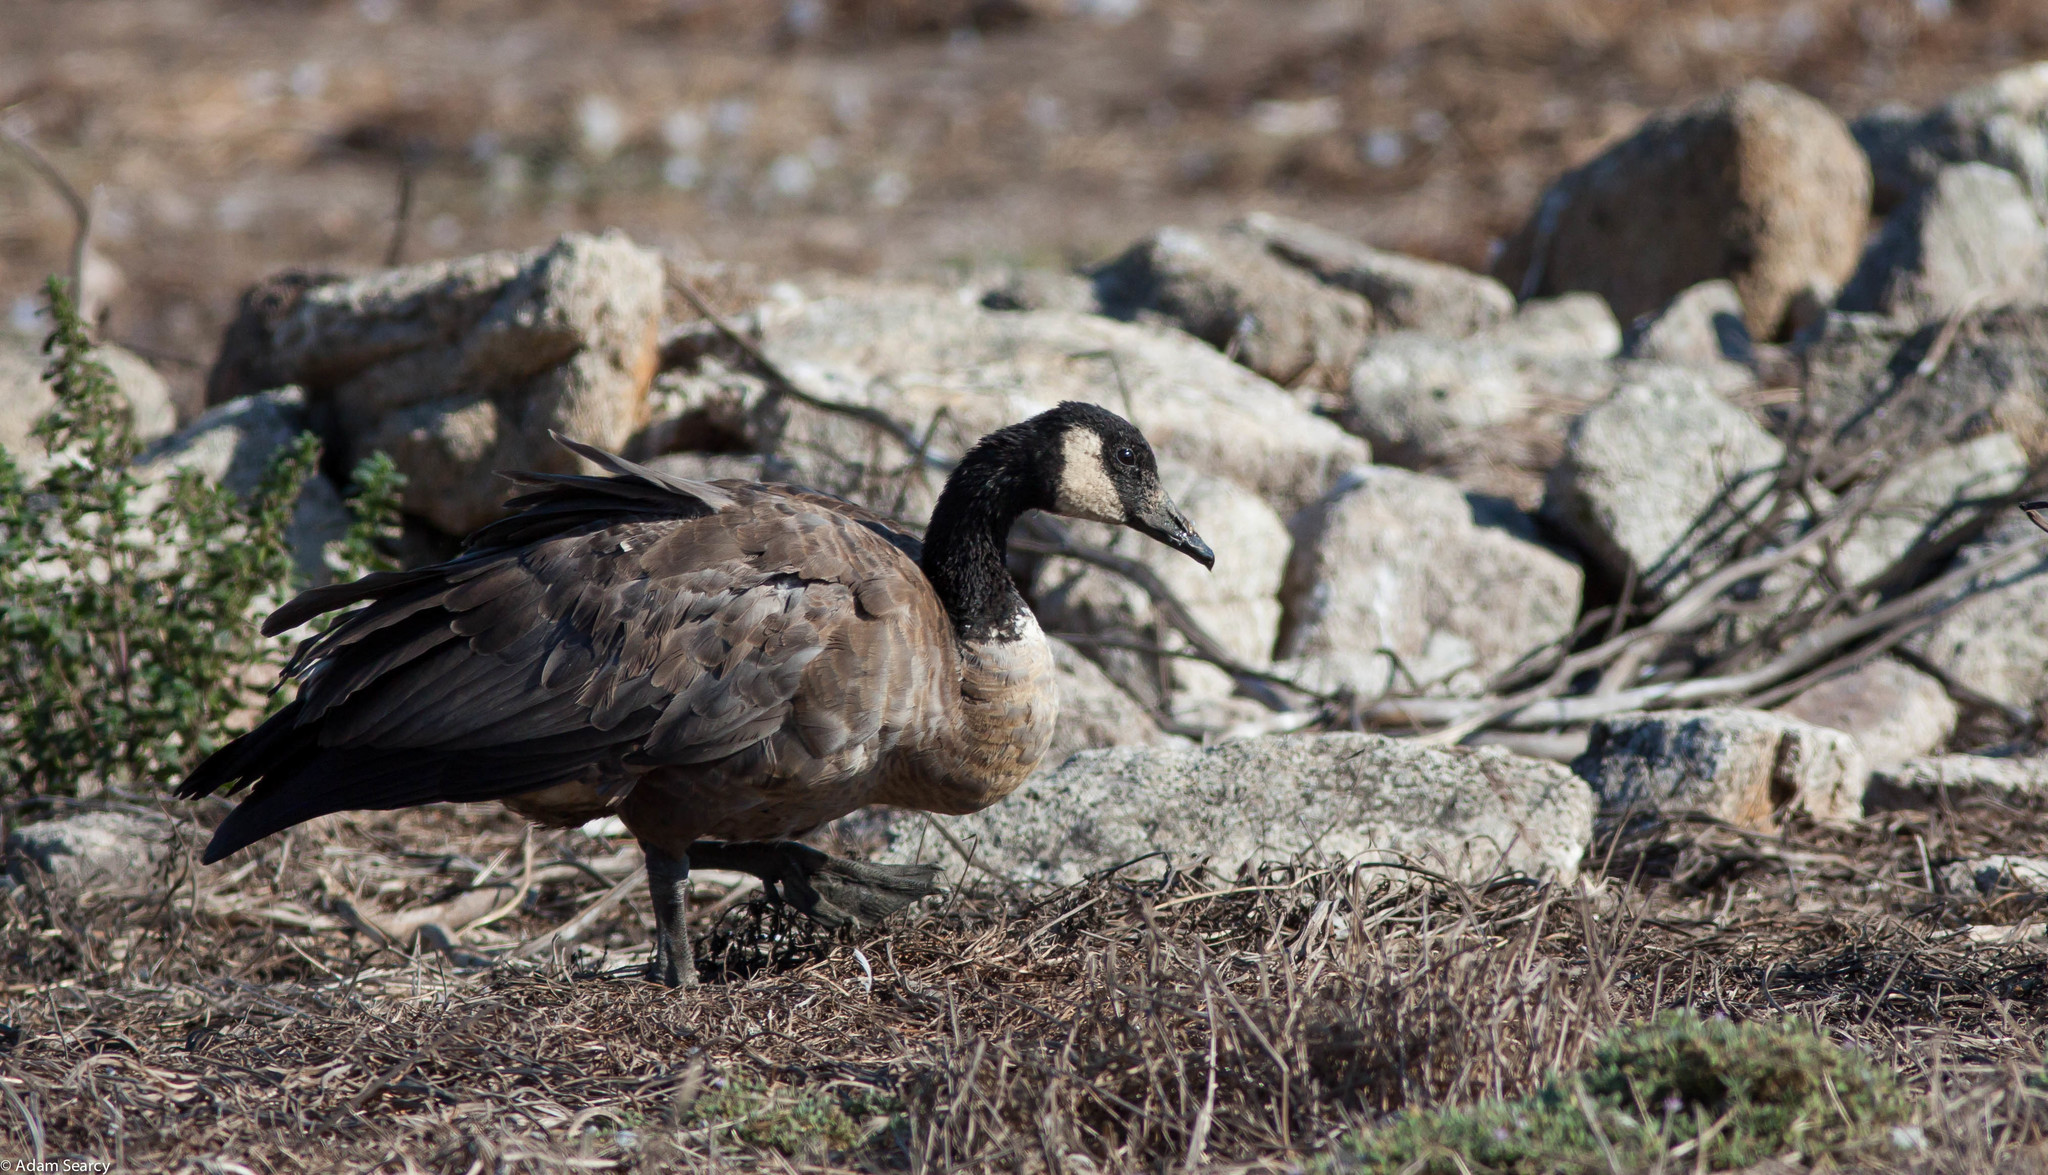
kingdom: Animalia
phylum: Chordata
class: Aves
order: Anseriformes
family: Anatidae
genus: Branta
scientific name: Branta canadensis
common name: Canada goose
